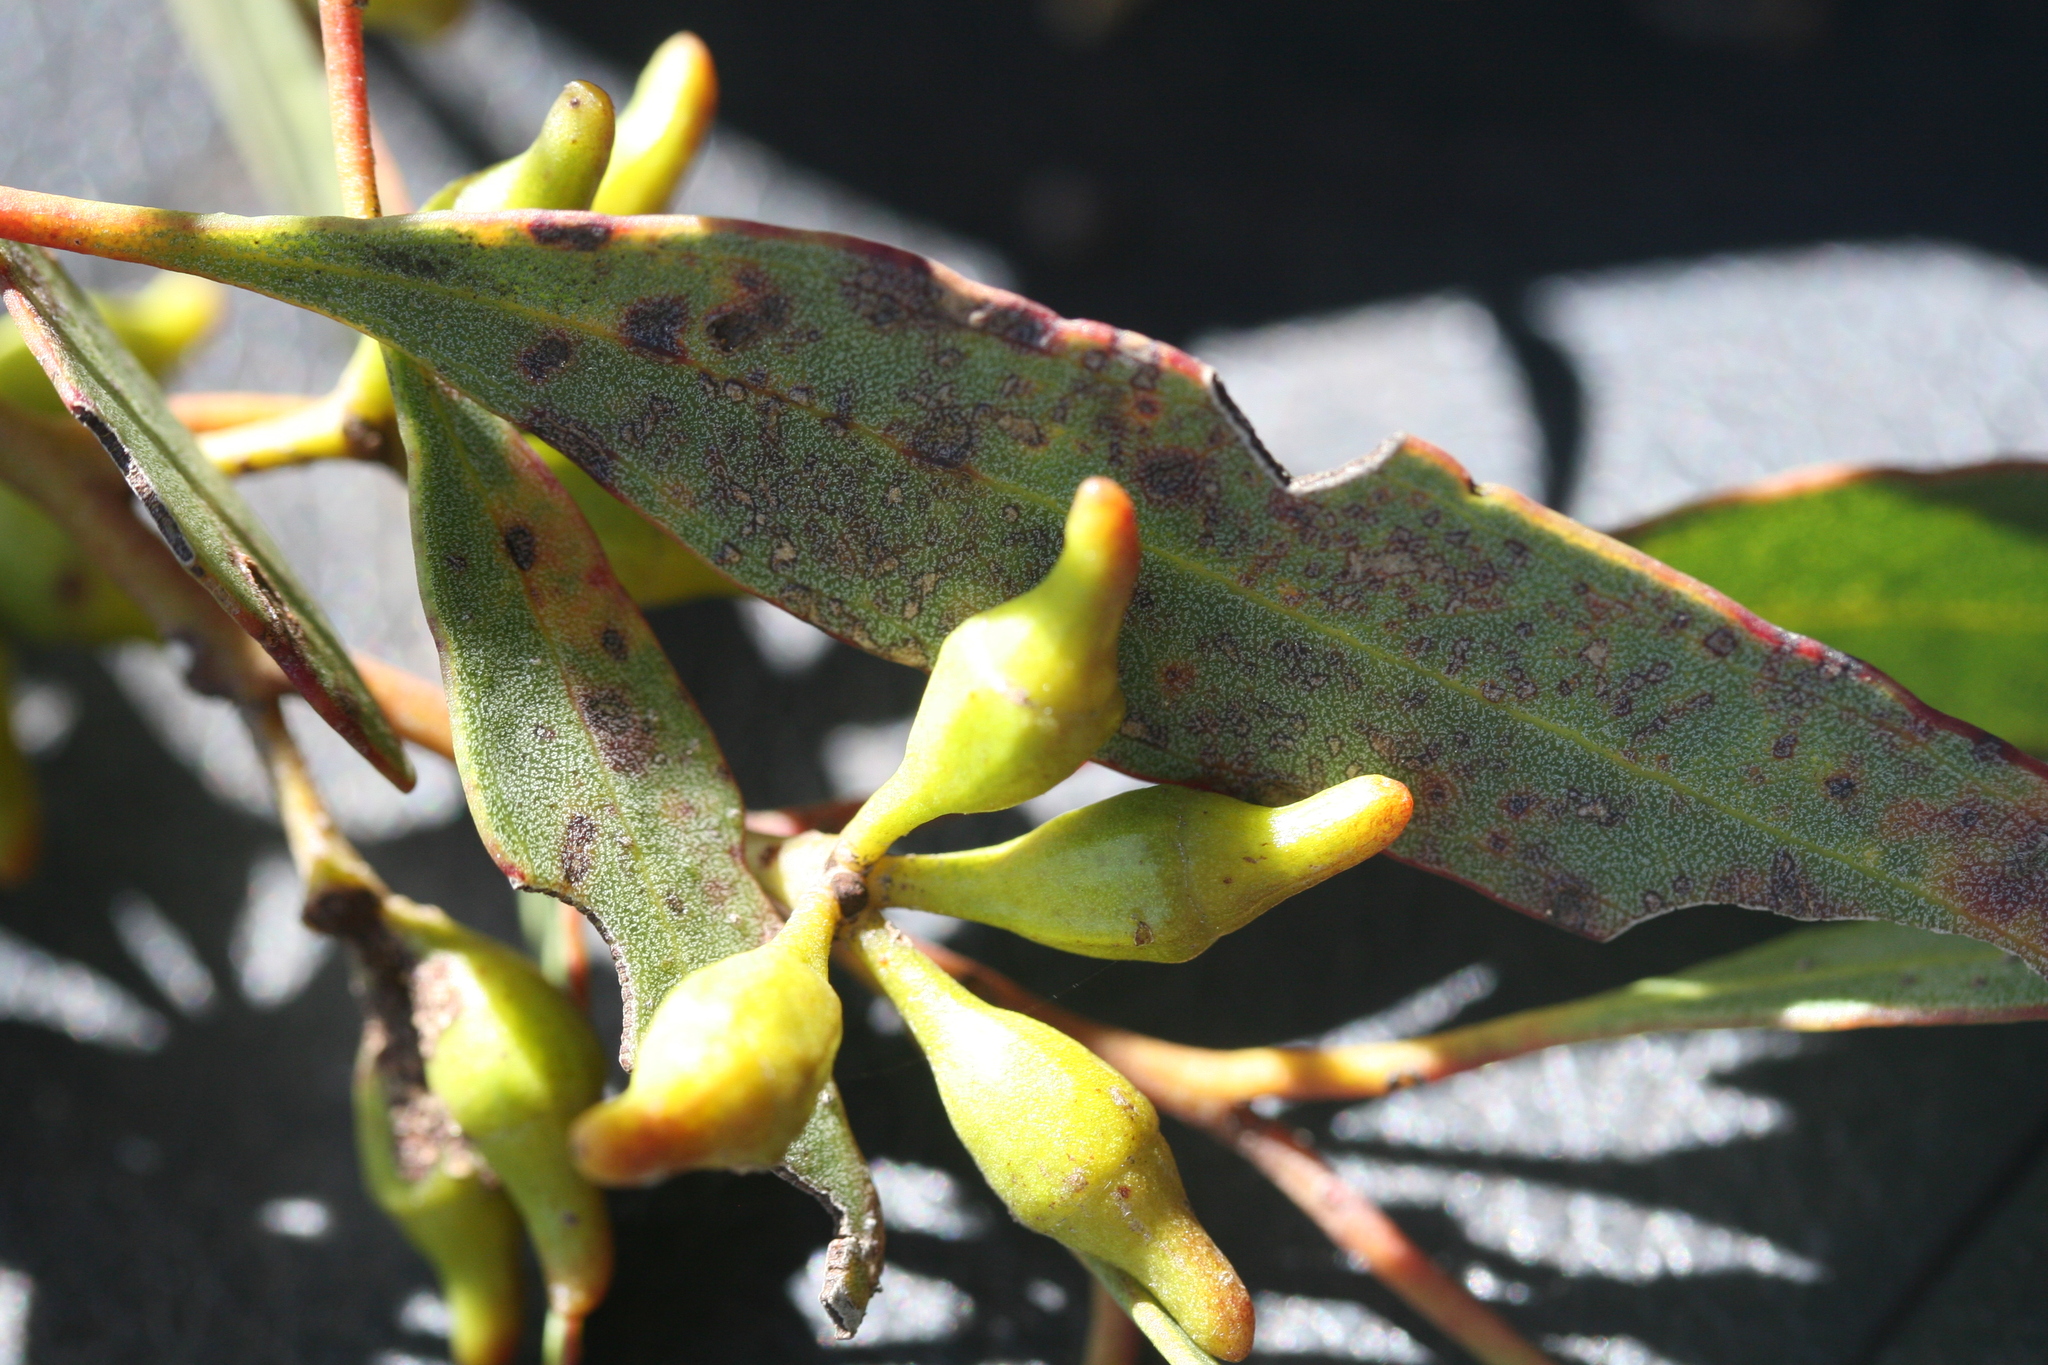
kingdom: Plantae
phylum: Tracheophyta
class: Magnoliopsida
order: Myrtales
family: Myrtaceae
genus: Eucalyptus
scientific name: Eucalyptus incrassata
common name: Ridge-fruit mallee
